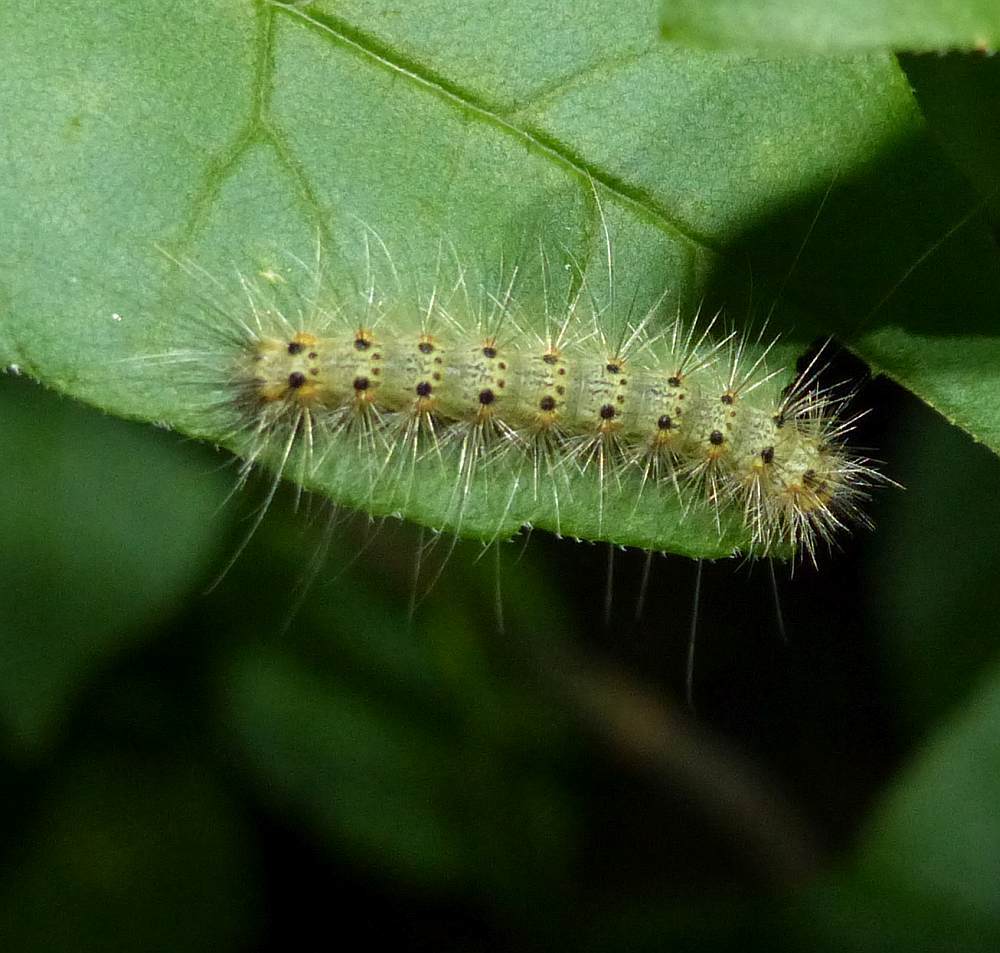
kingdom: Animalia
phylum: Arthropoda
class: Insecta
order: Lepidoptera
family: Erebidae
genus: Hyphantria
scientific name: Hyphantria cunea
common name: American white moth
